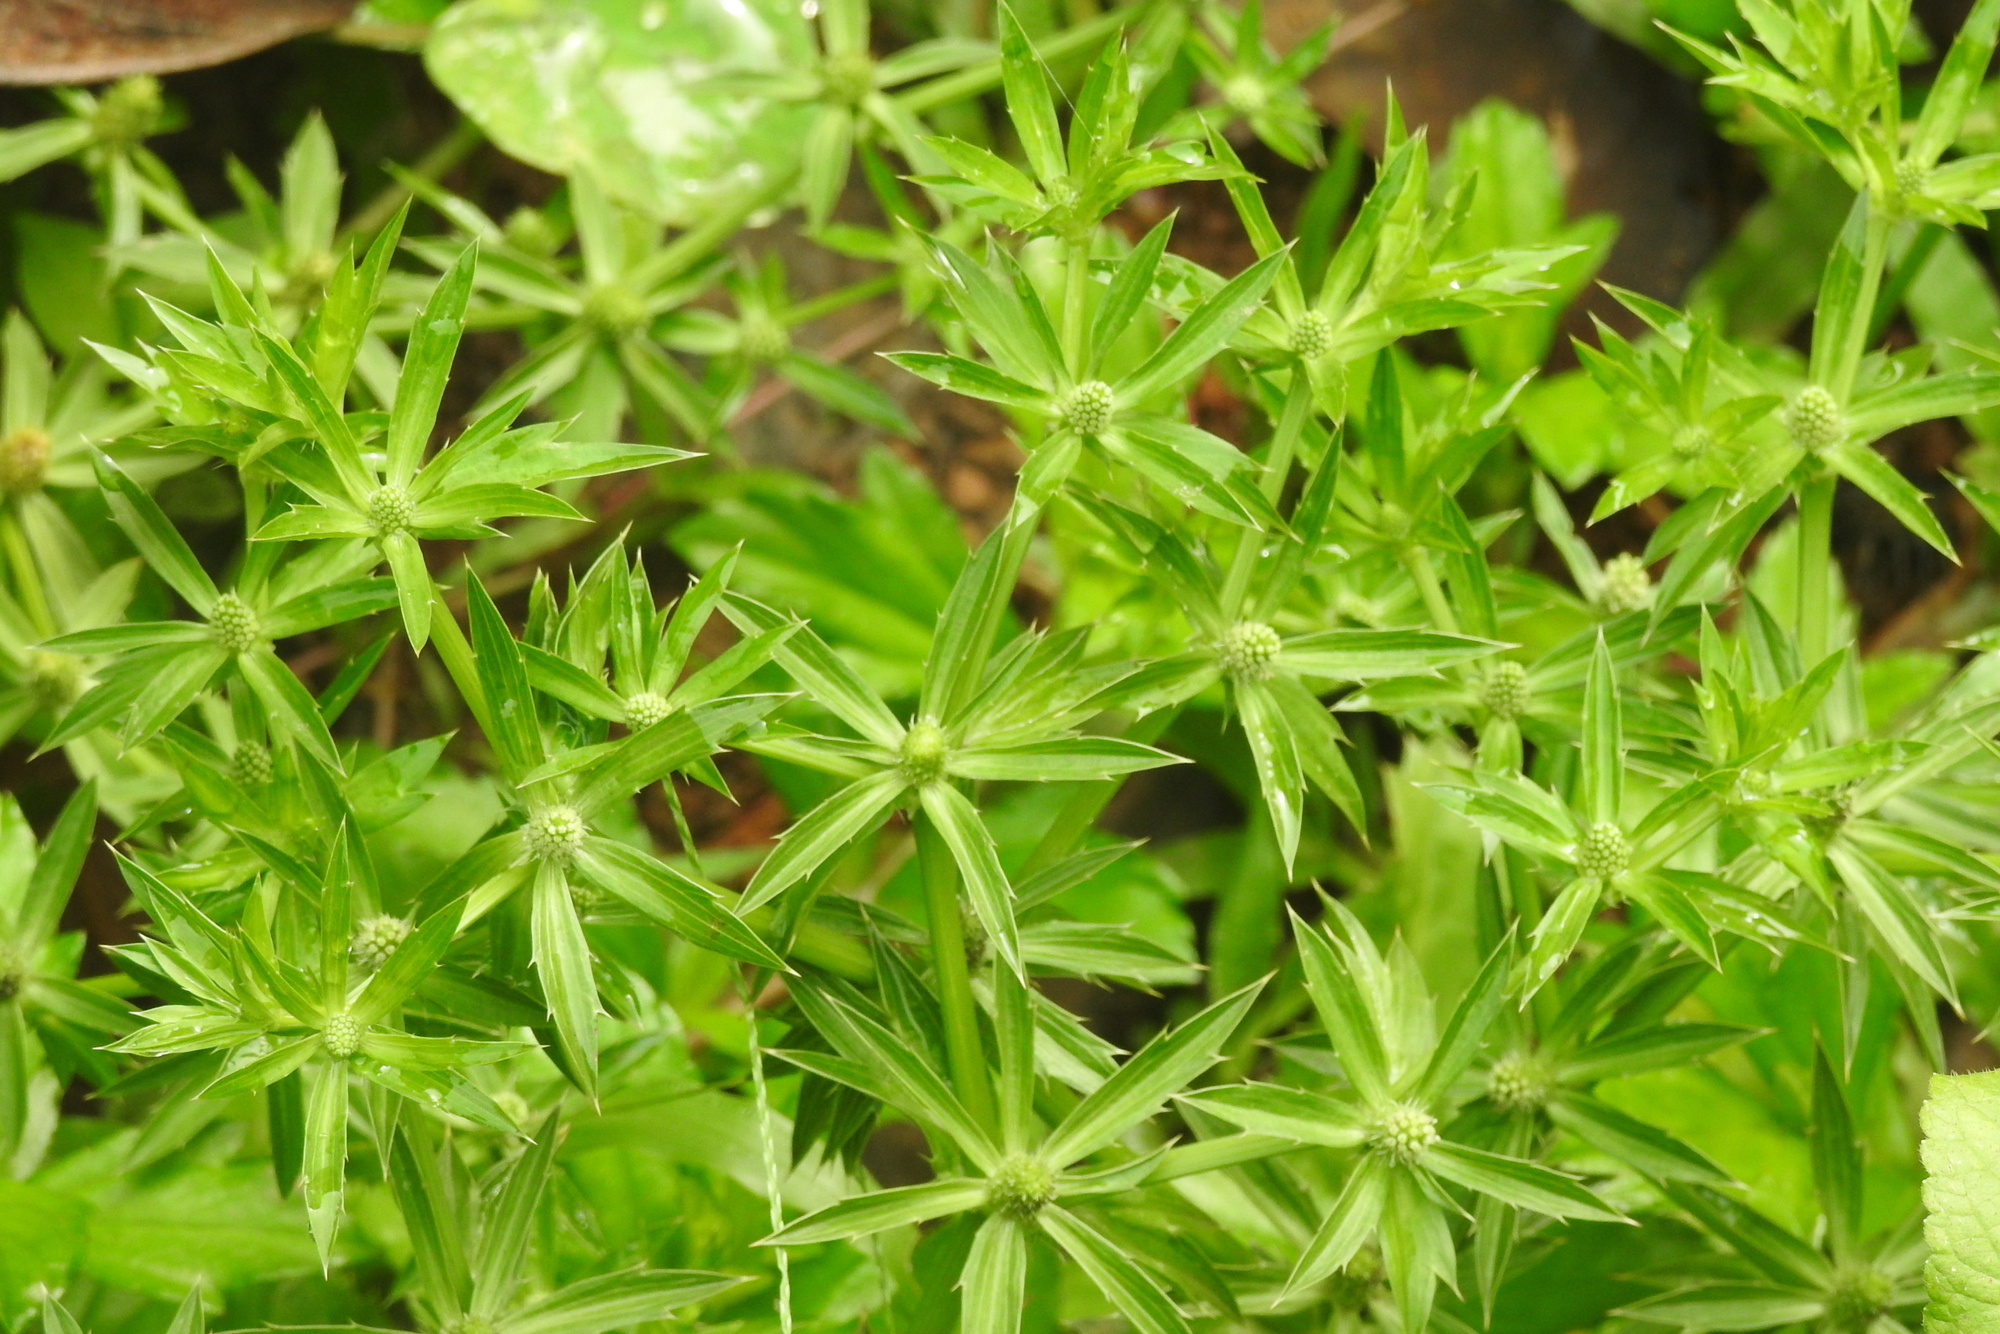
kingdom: Plantae
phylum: Tracheophyta
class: Magnoliopsida
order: Apiales
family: Apiaceae
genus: Eryngium
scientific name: Eryngium foetidum
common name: Fitweed
